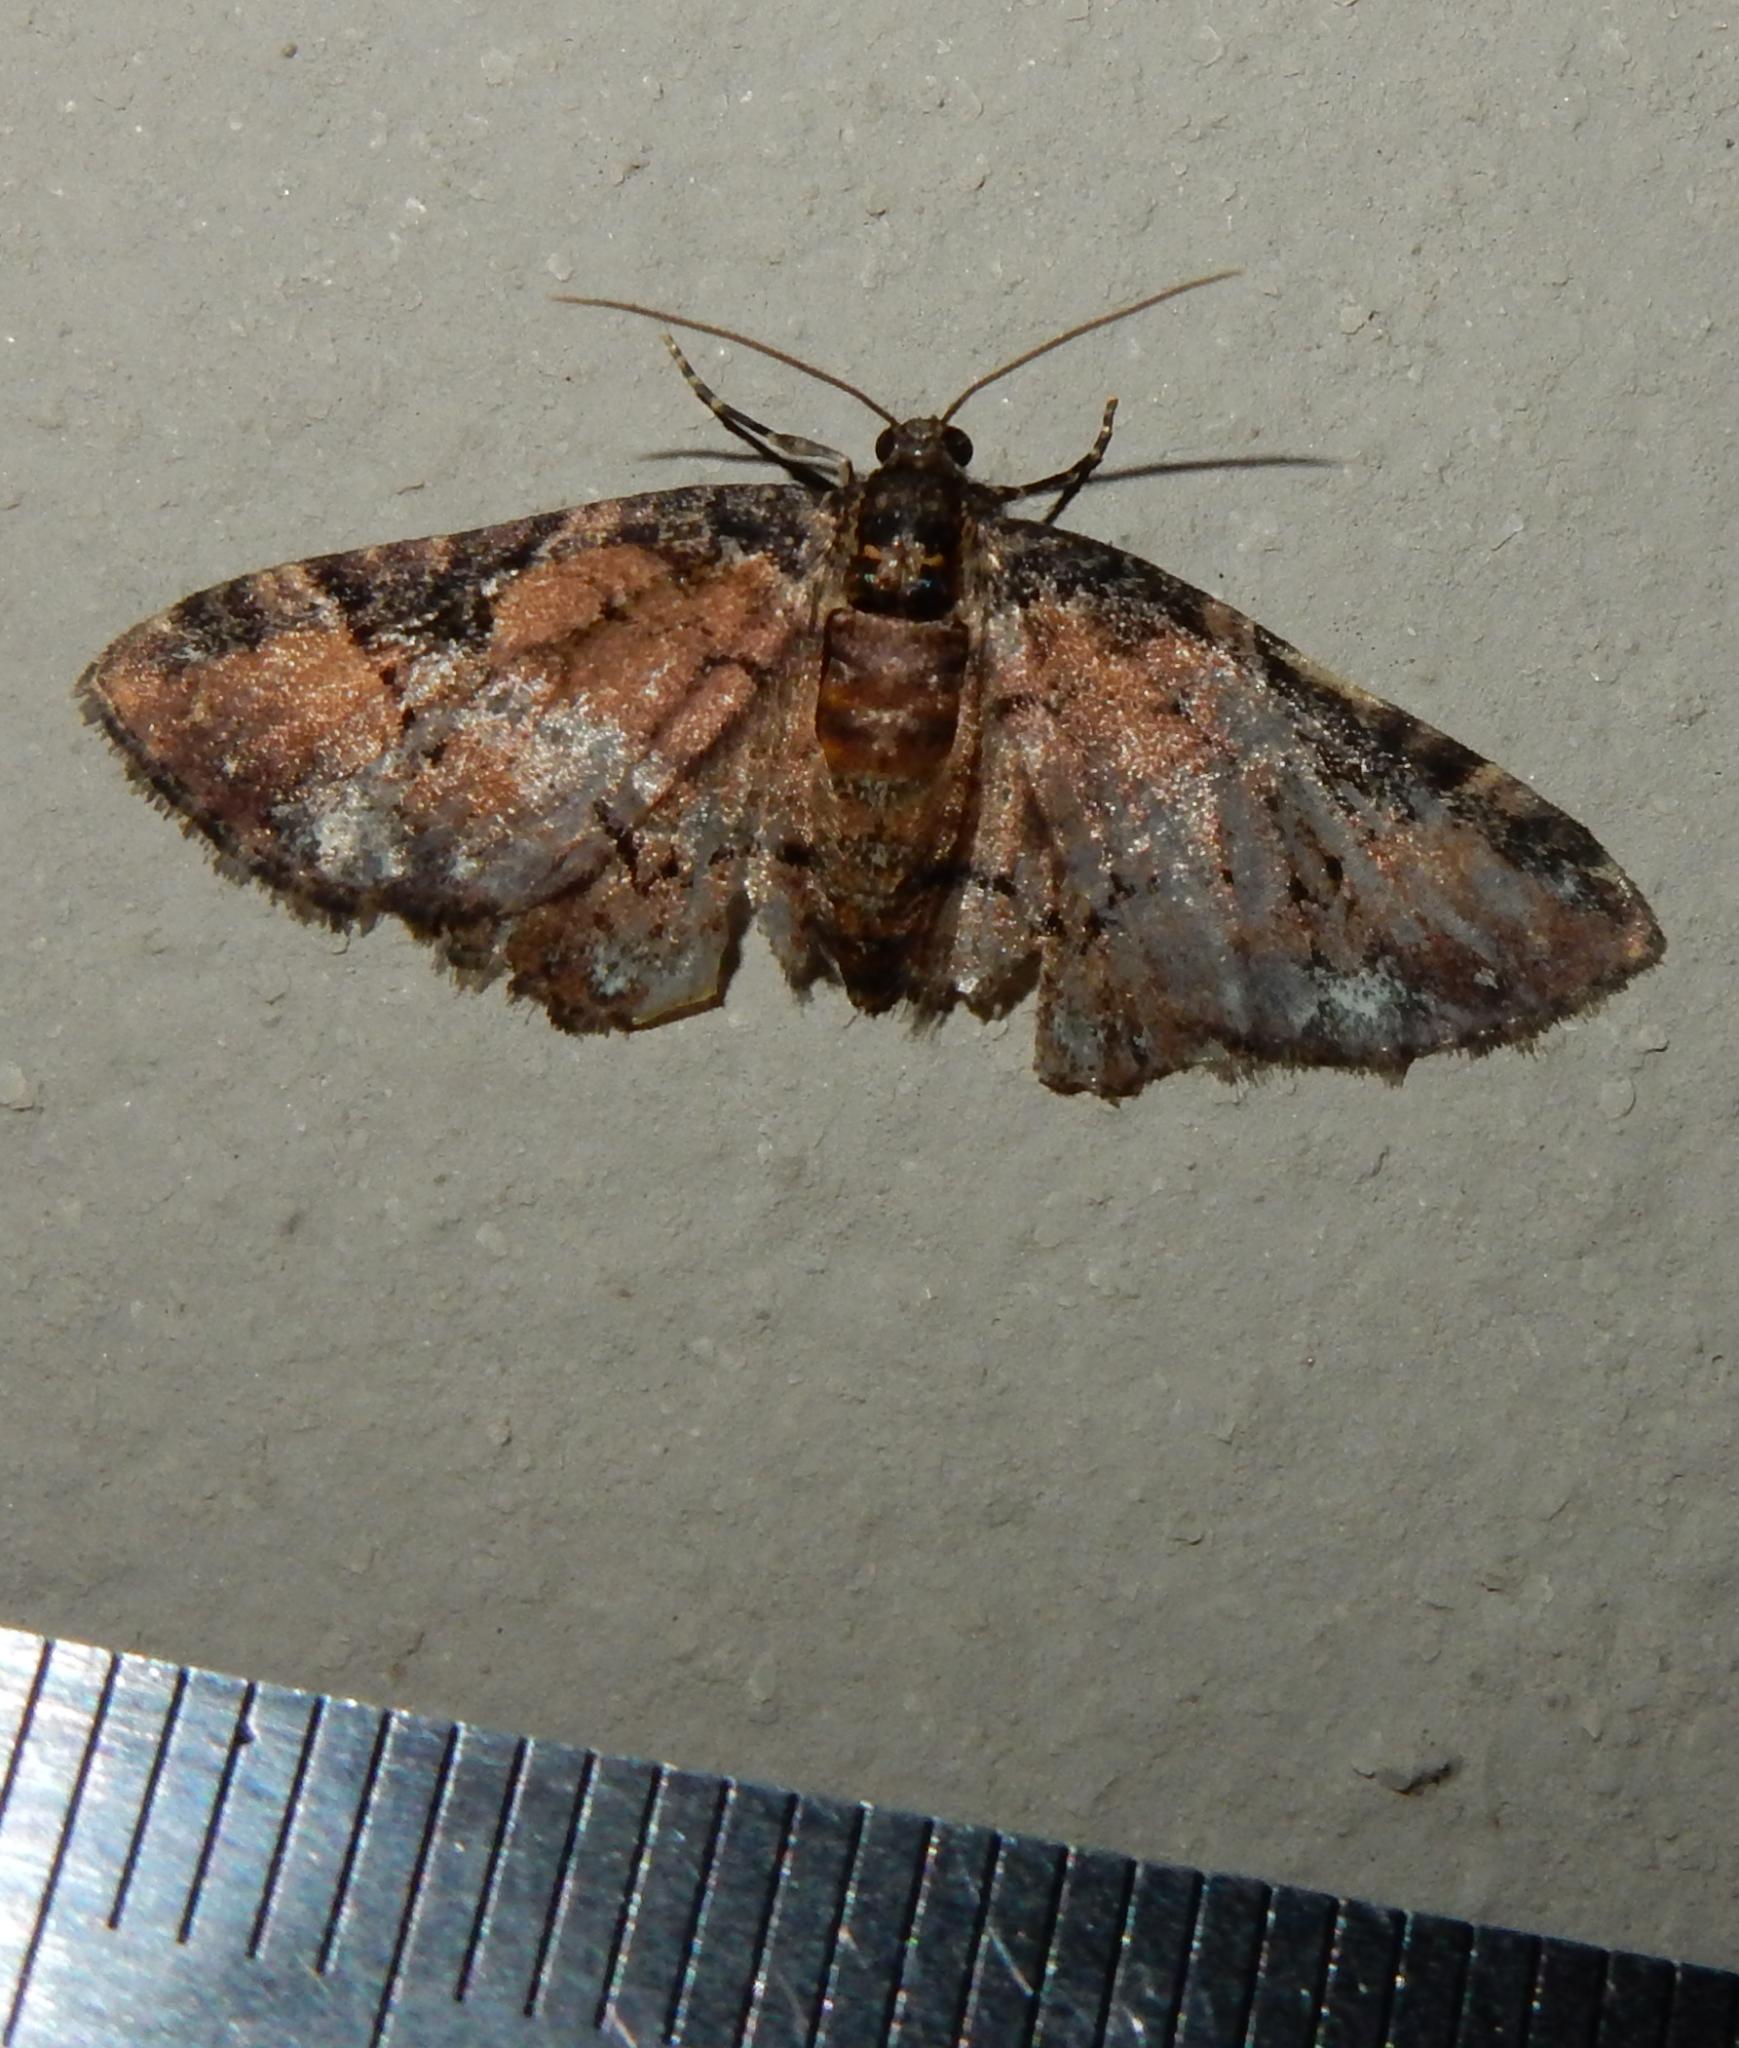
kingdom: Animalia
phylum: Arthropoda
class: Insecta
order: Lepidoptera
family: Geometridae
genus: Melanthia
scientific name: Melanthia ustiplaga
